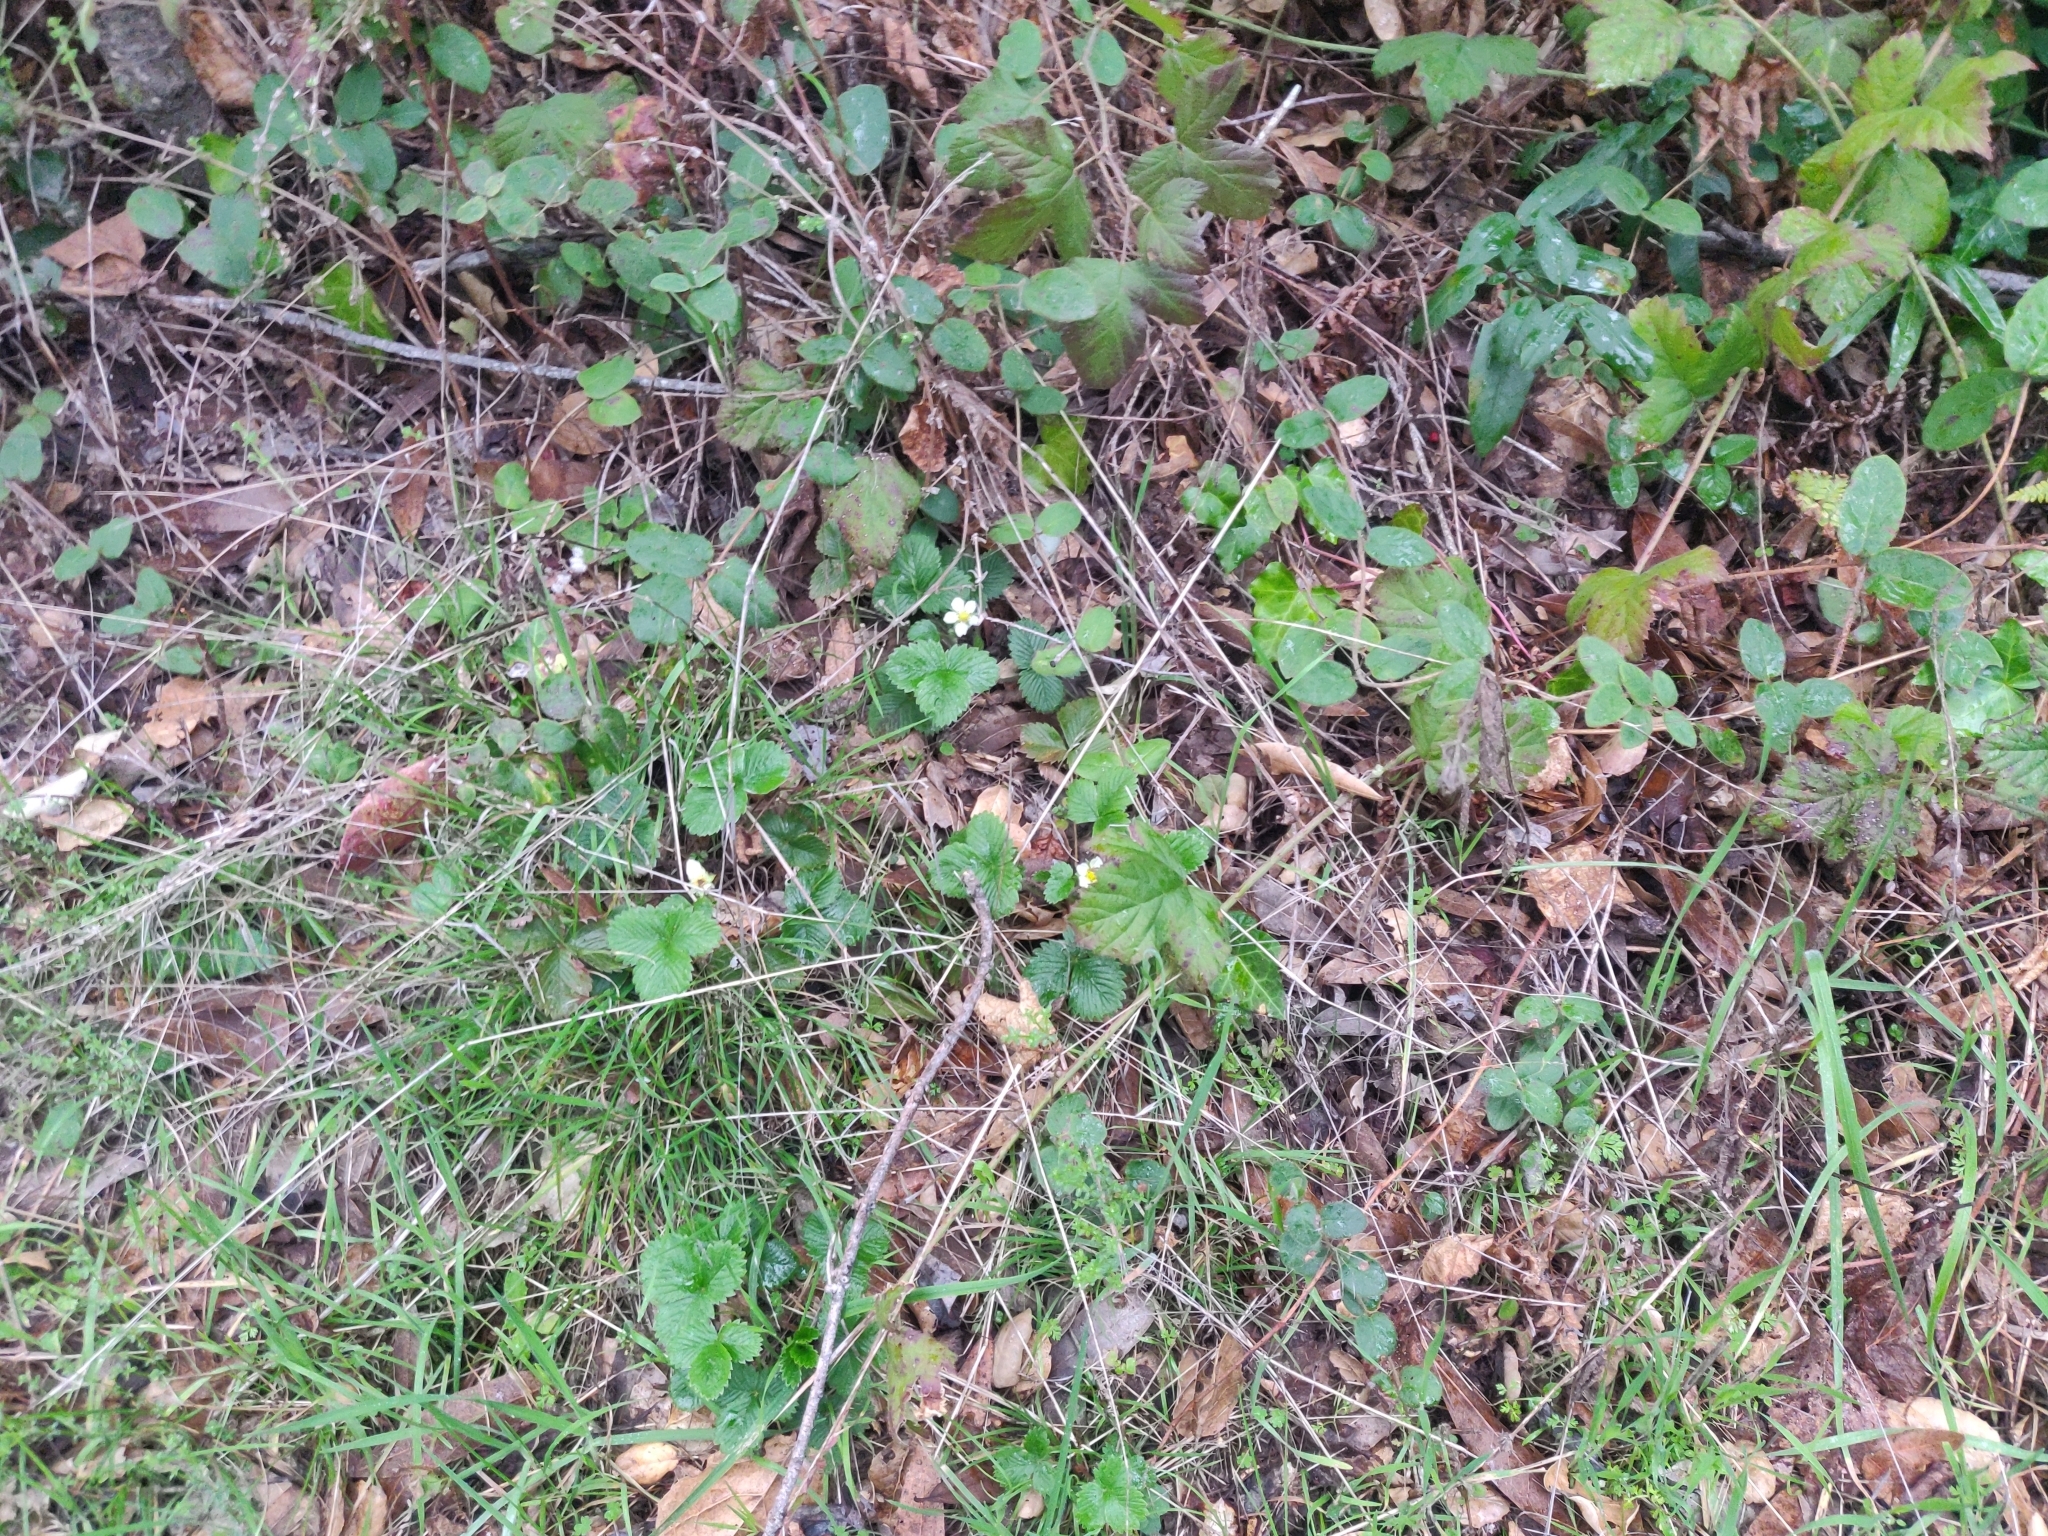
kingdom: Plantae
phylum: Tracheophyta
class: Magnoliopsida
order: Rosales
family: Rosaceae
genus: Fragaria
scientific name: Fragaria vesca
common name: Wild strawberry
